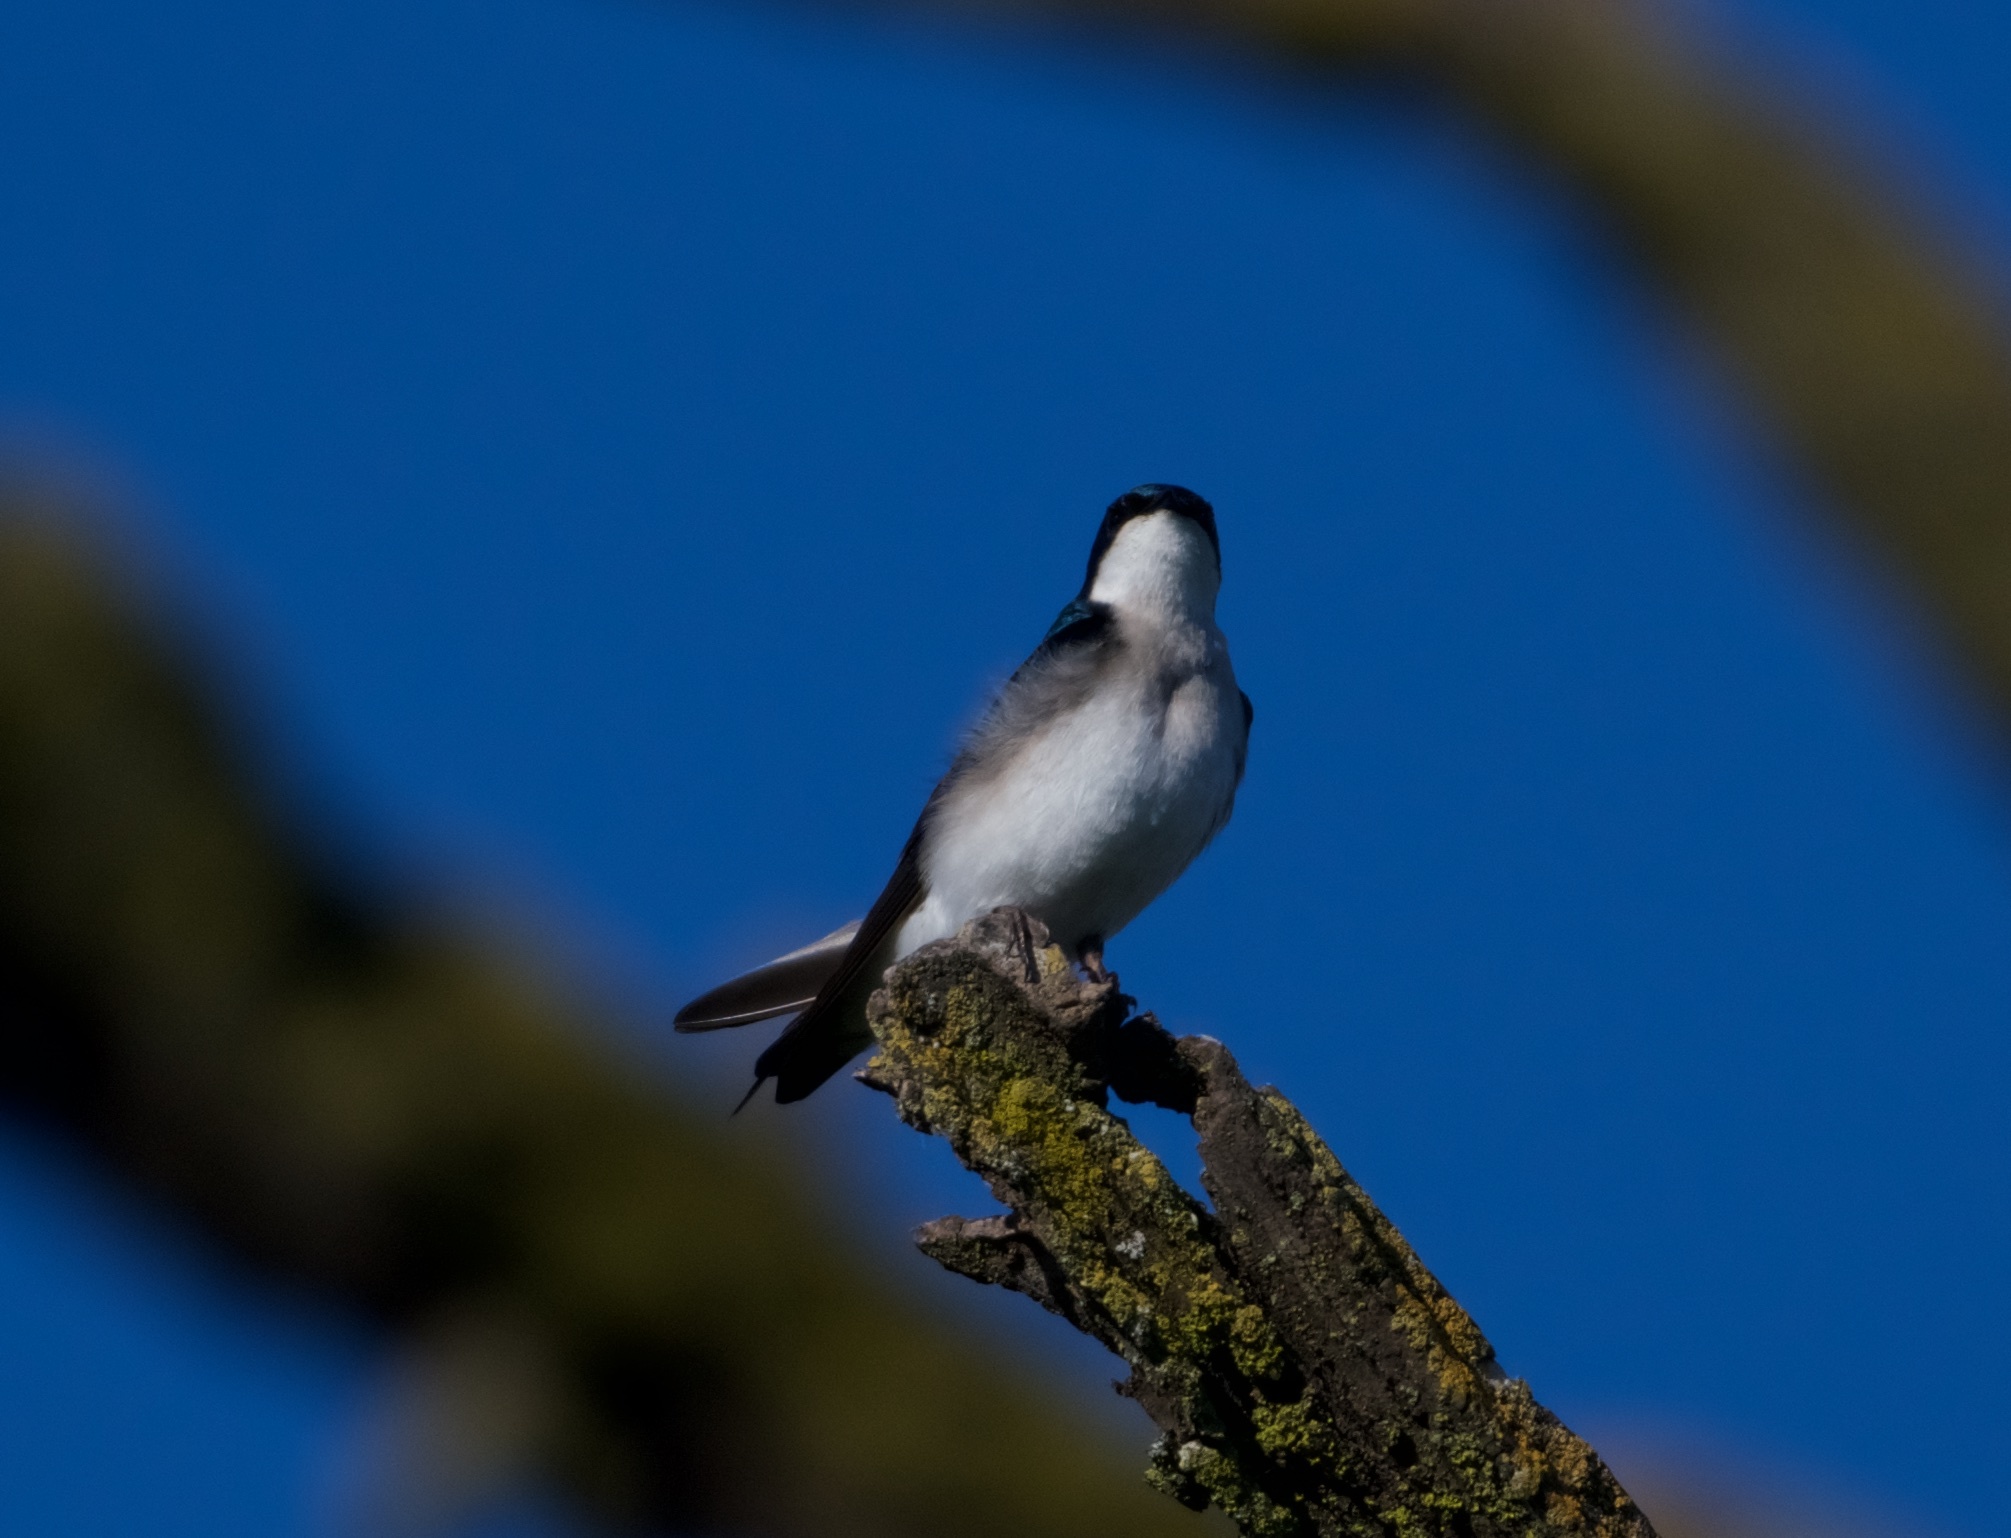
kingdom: Animalia
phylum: Chordata
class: Aves
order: Passeriformes
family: Hirundinidae
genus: Tachycineta
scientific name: Tachycineta bicolor
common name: Tree swallow
